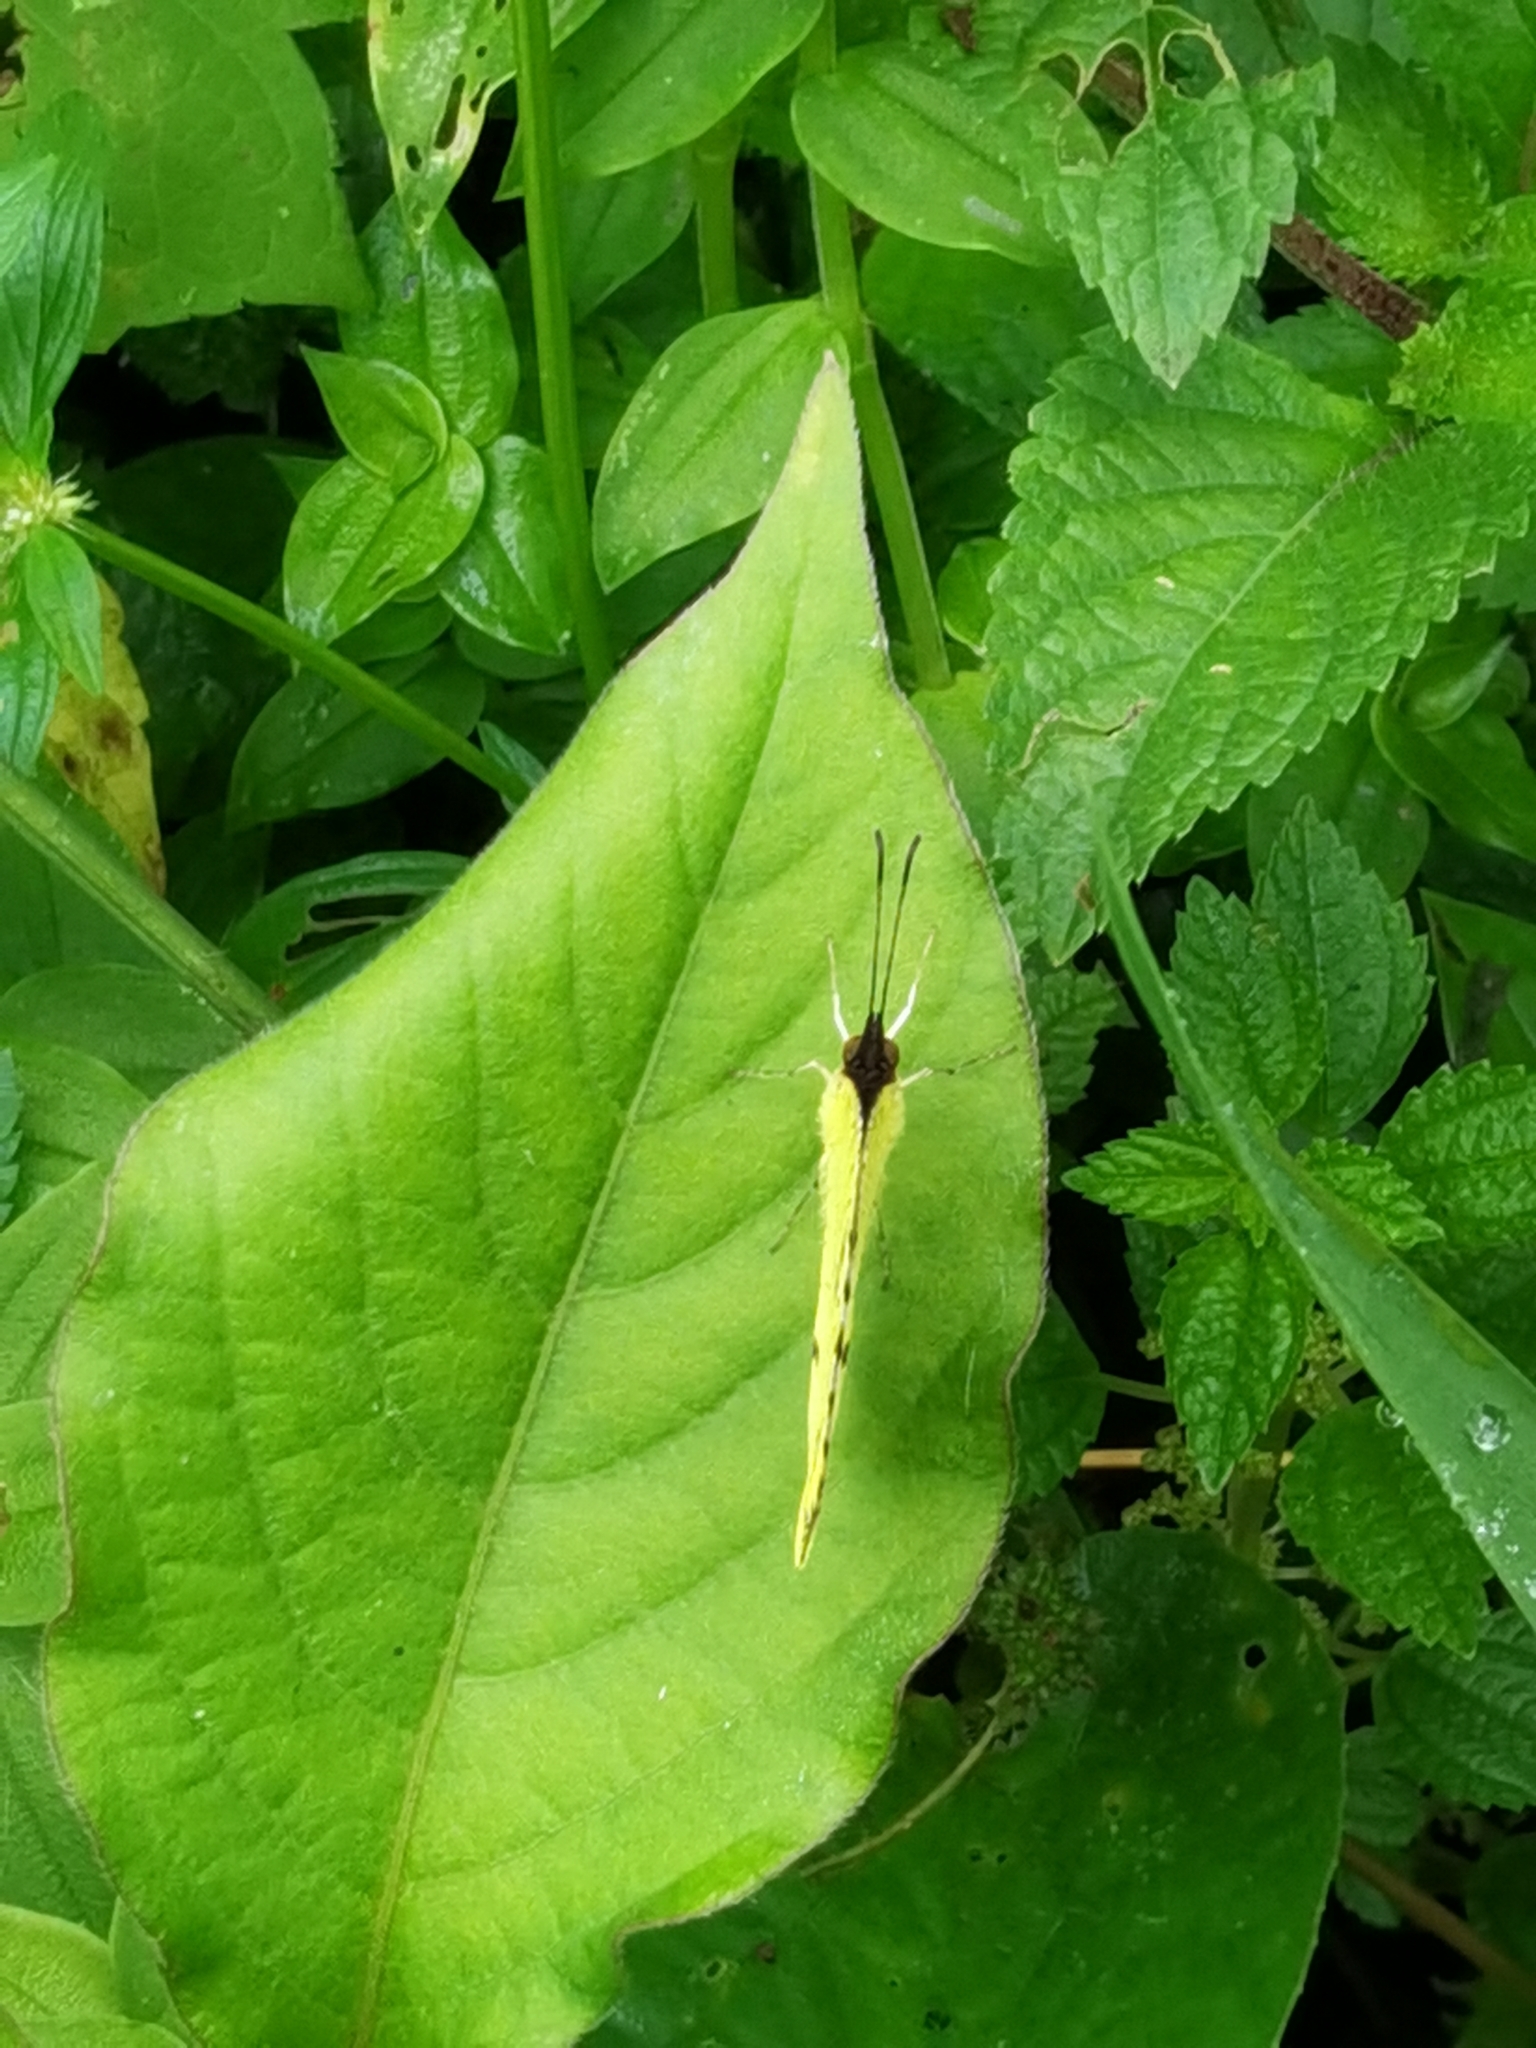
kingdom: Animalia
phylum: Arthropoda
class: Insecta
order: Lepidoptera
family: Pieridae
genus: Abaeis
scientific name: Abaeis
